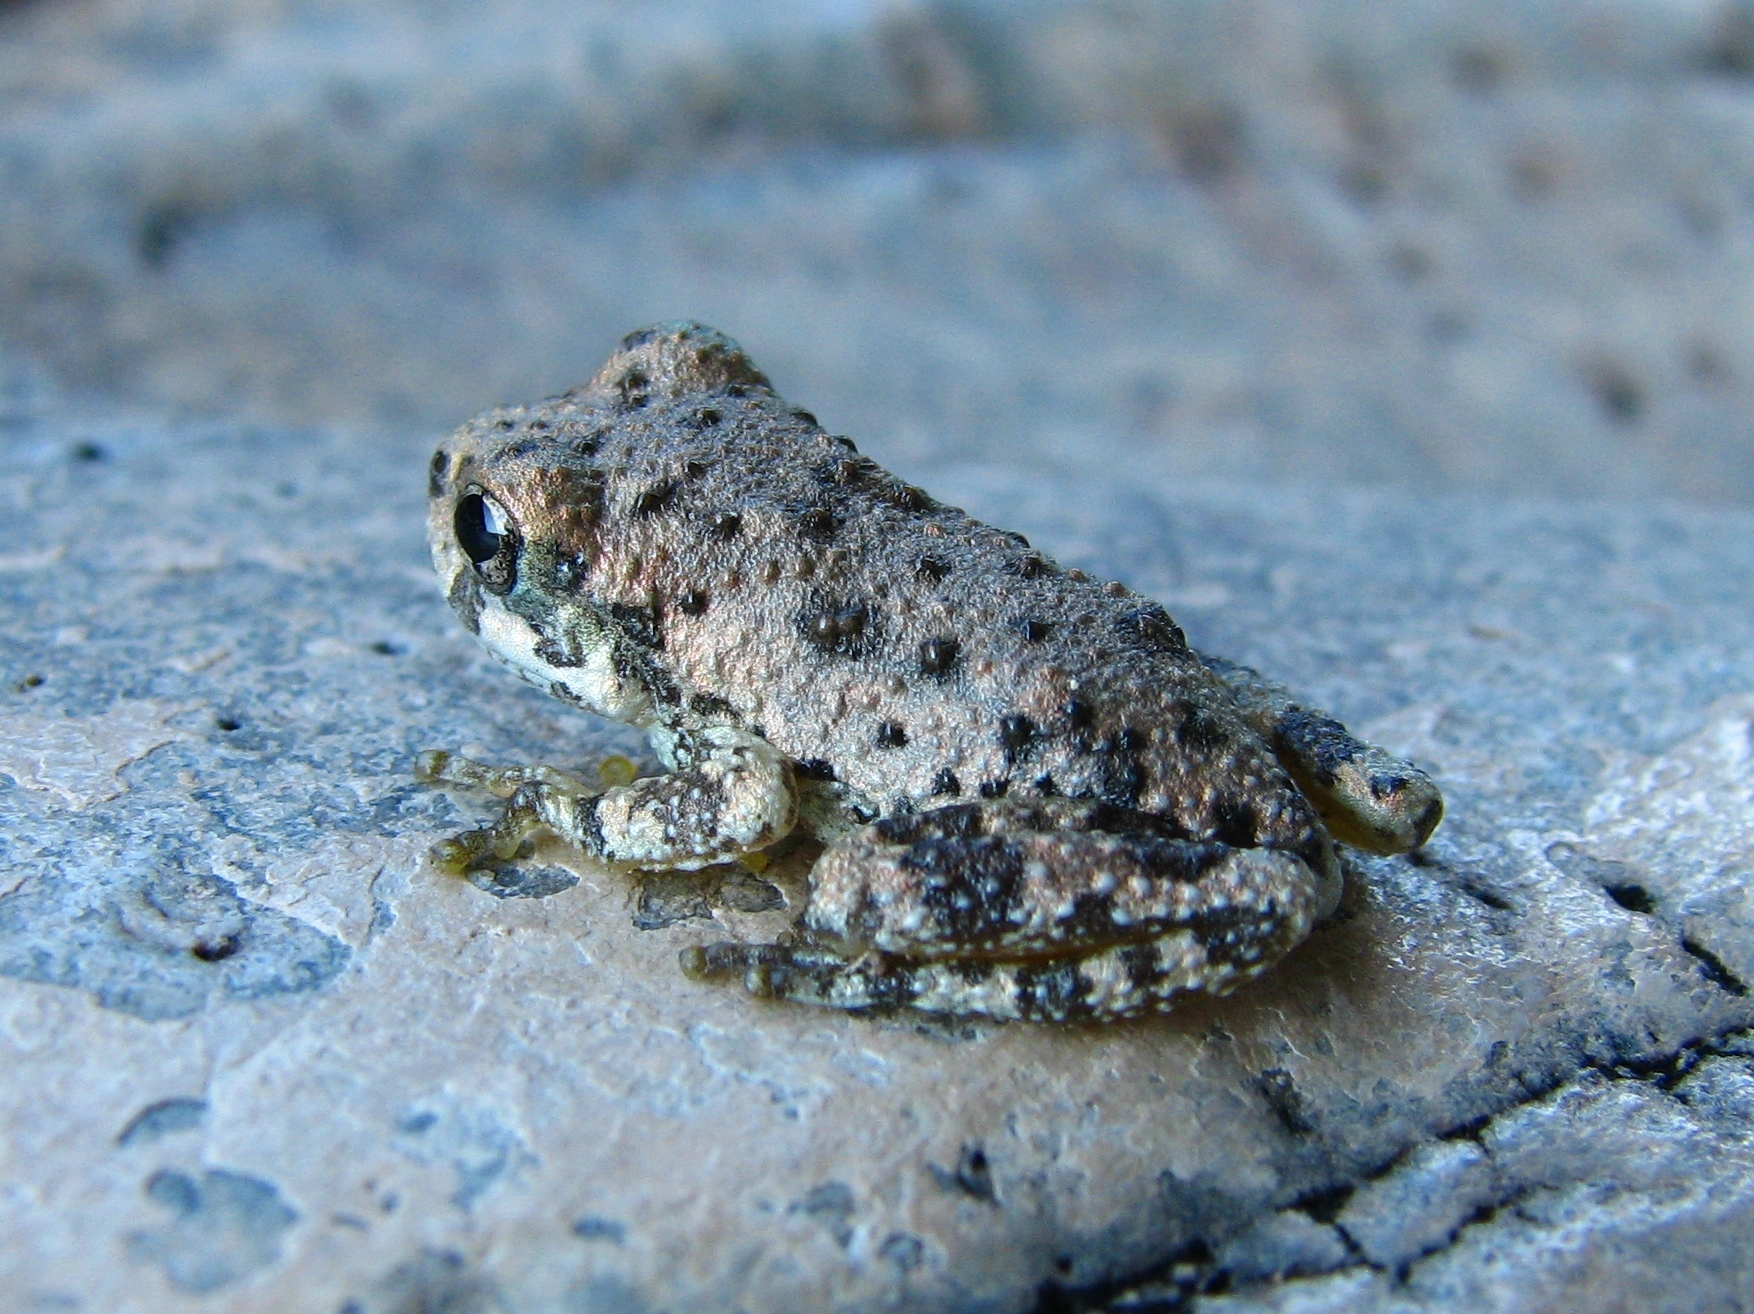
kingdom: Animalia
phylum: Chordata
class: Amphibia
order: Anura
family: Hylidae
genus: Dryophytes
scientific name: Dryophytes arenicolor
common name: Canyon treefrog
